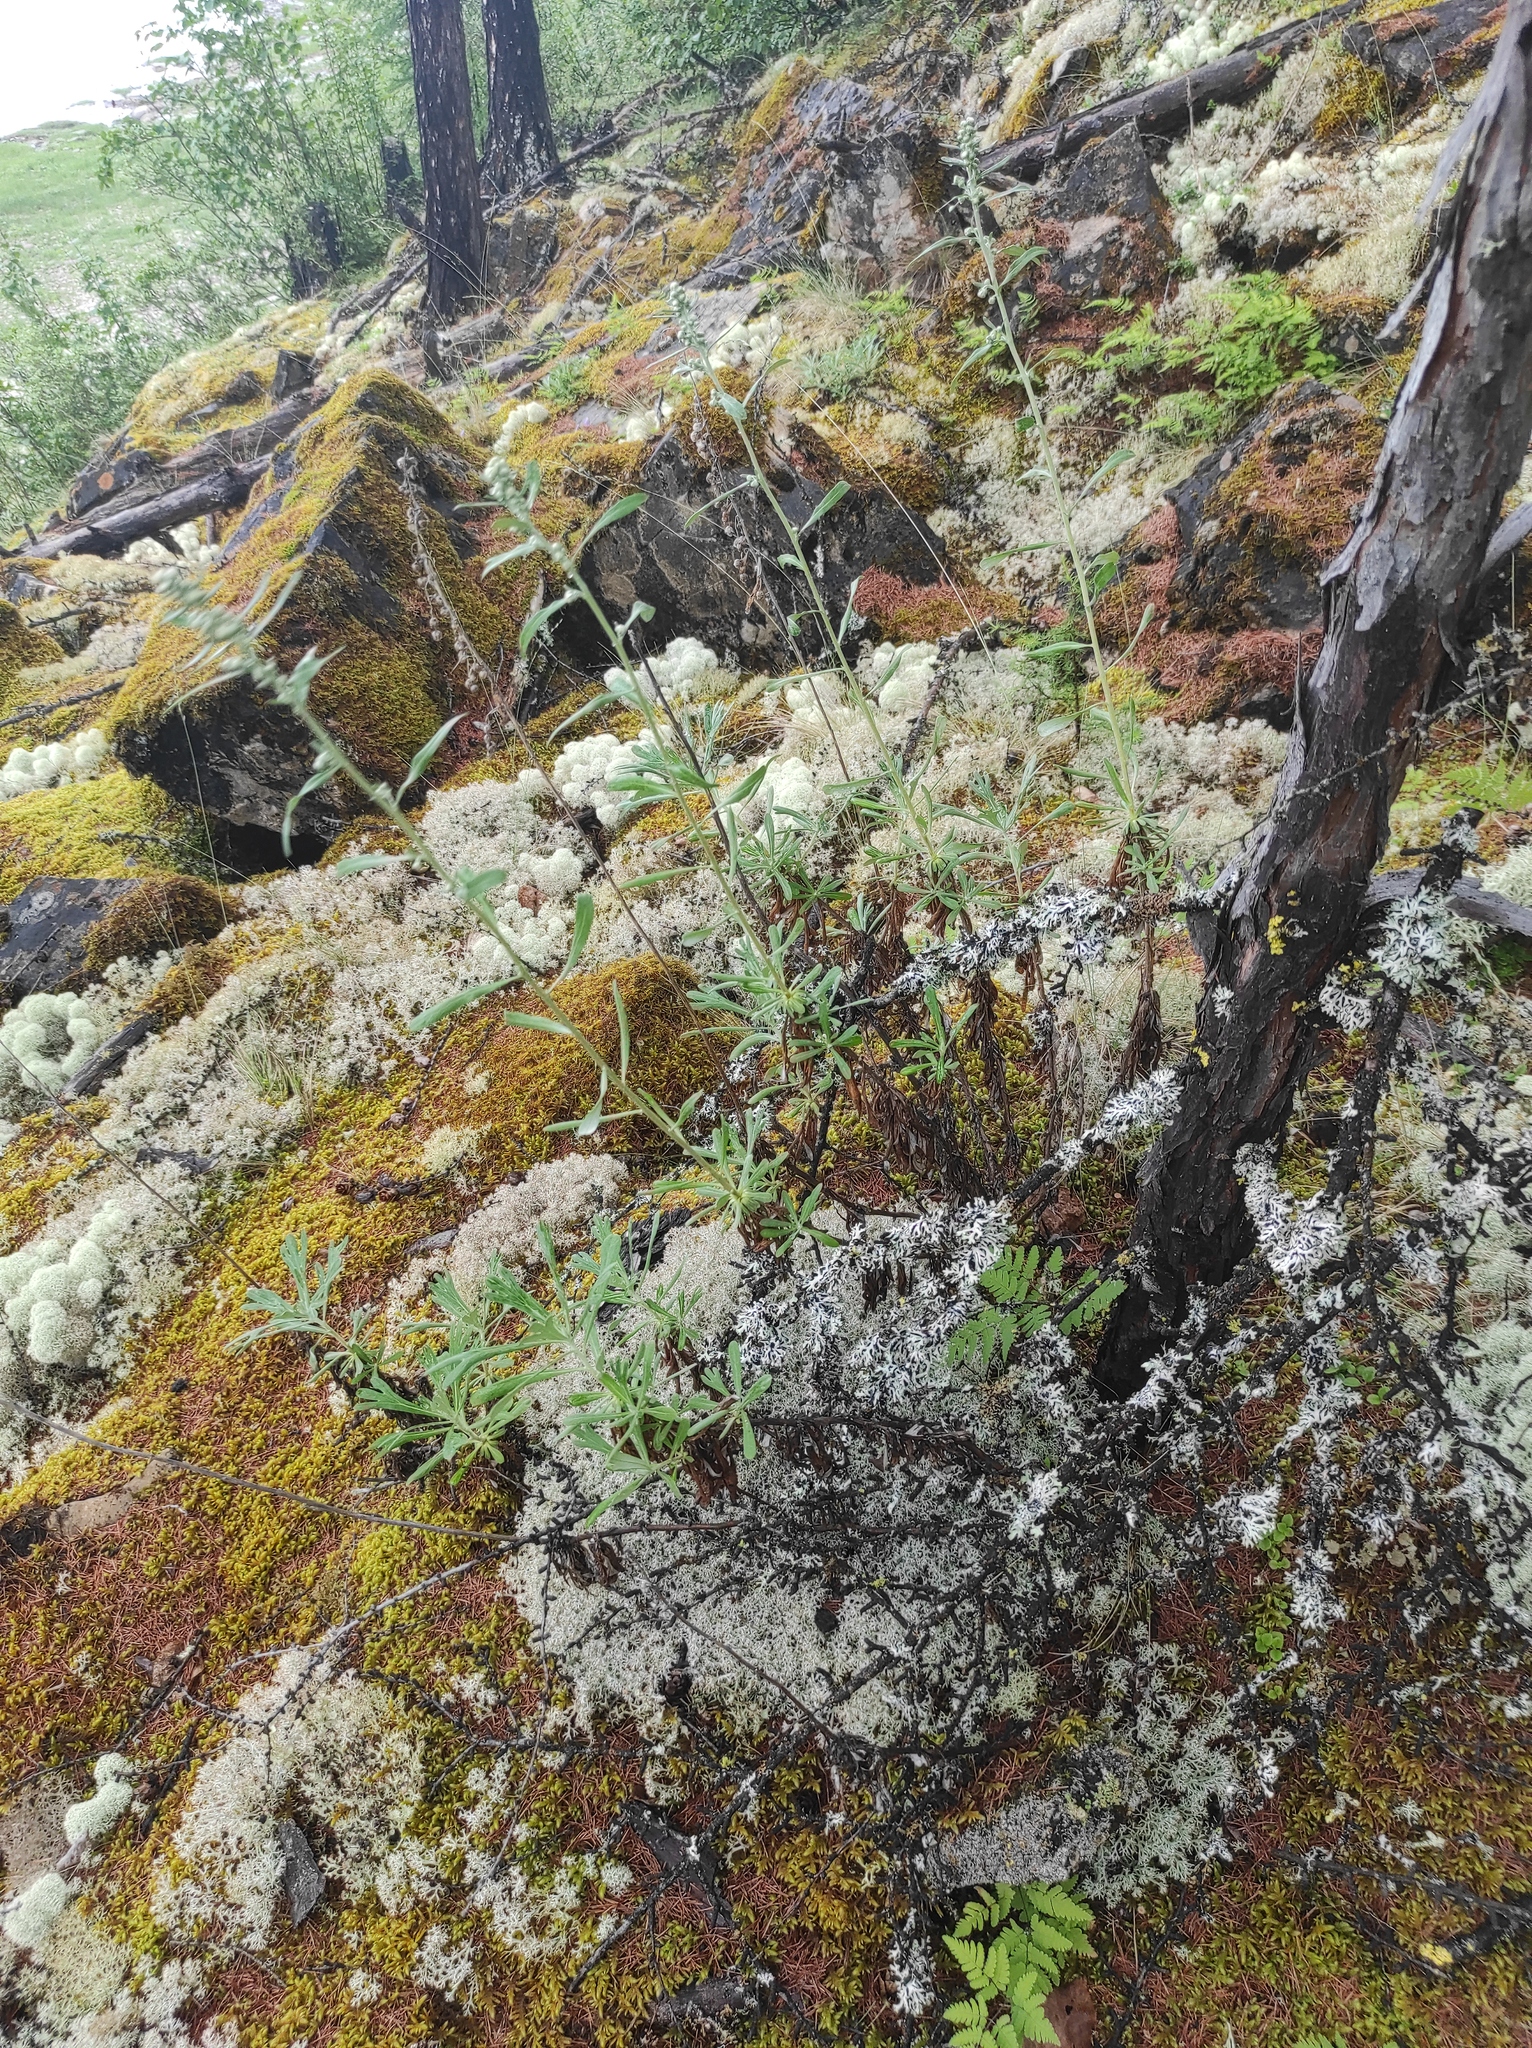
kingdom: Plantae
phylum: Tracheophyta
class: Magnoliopsida
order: Asterales
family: Asteraceae
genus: Artemisia
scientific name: Artemisia lagocephala
